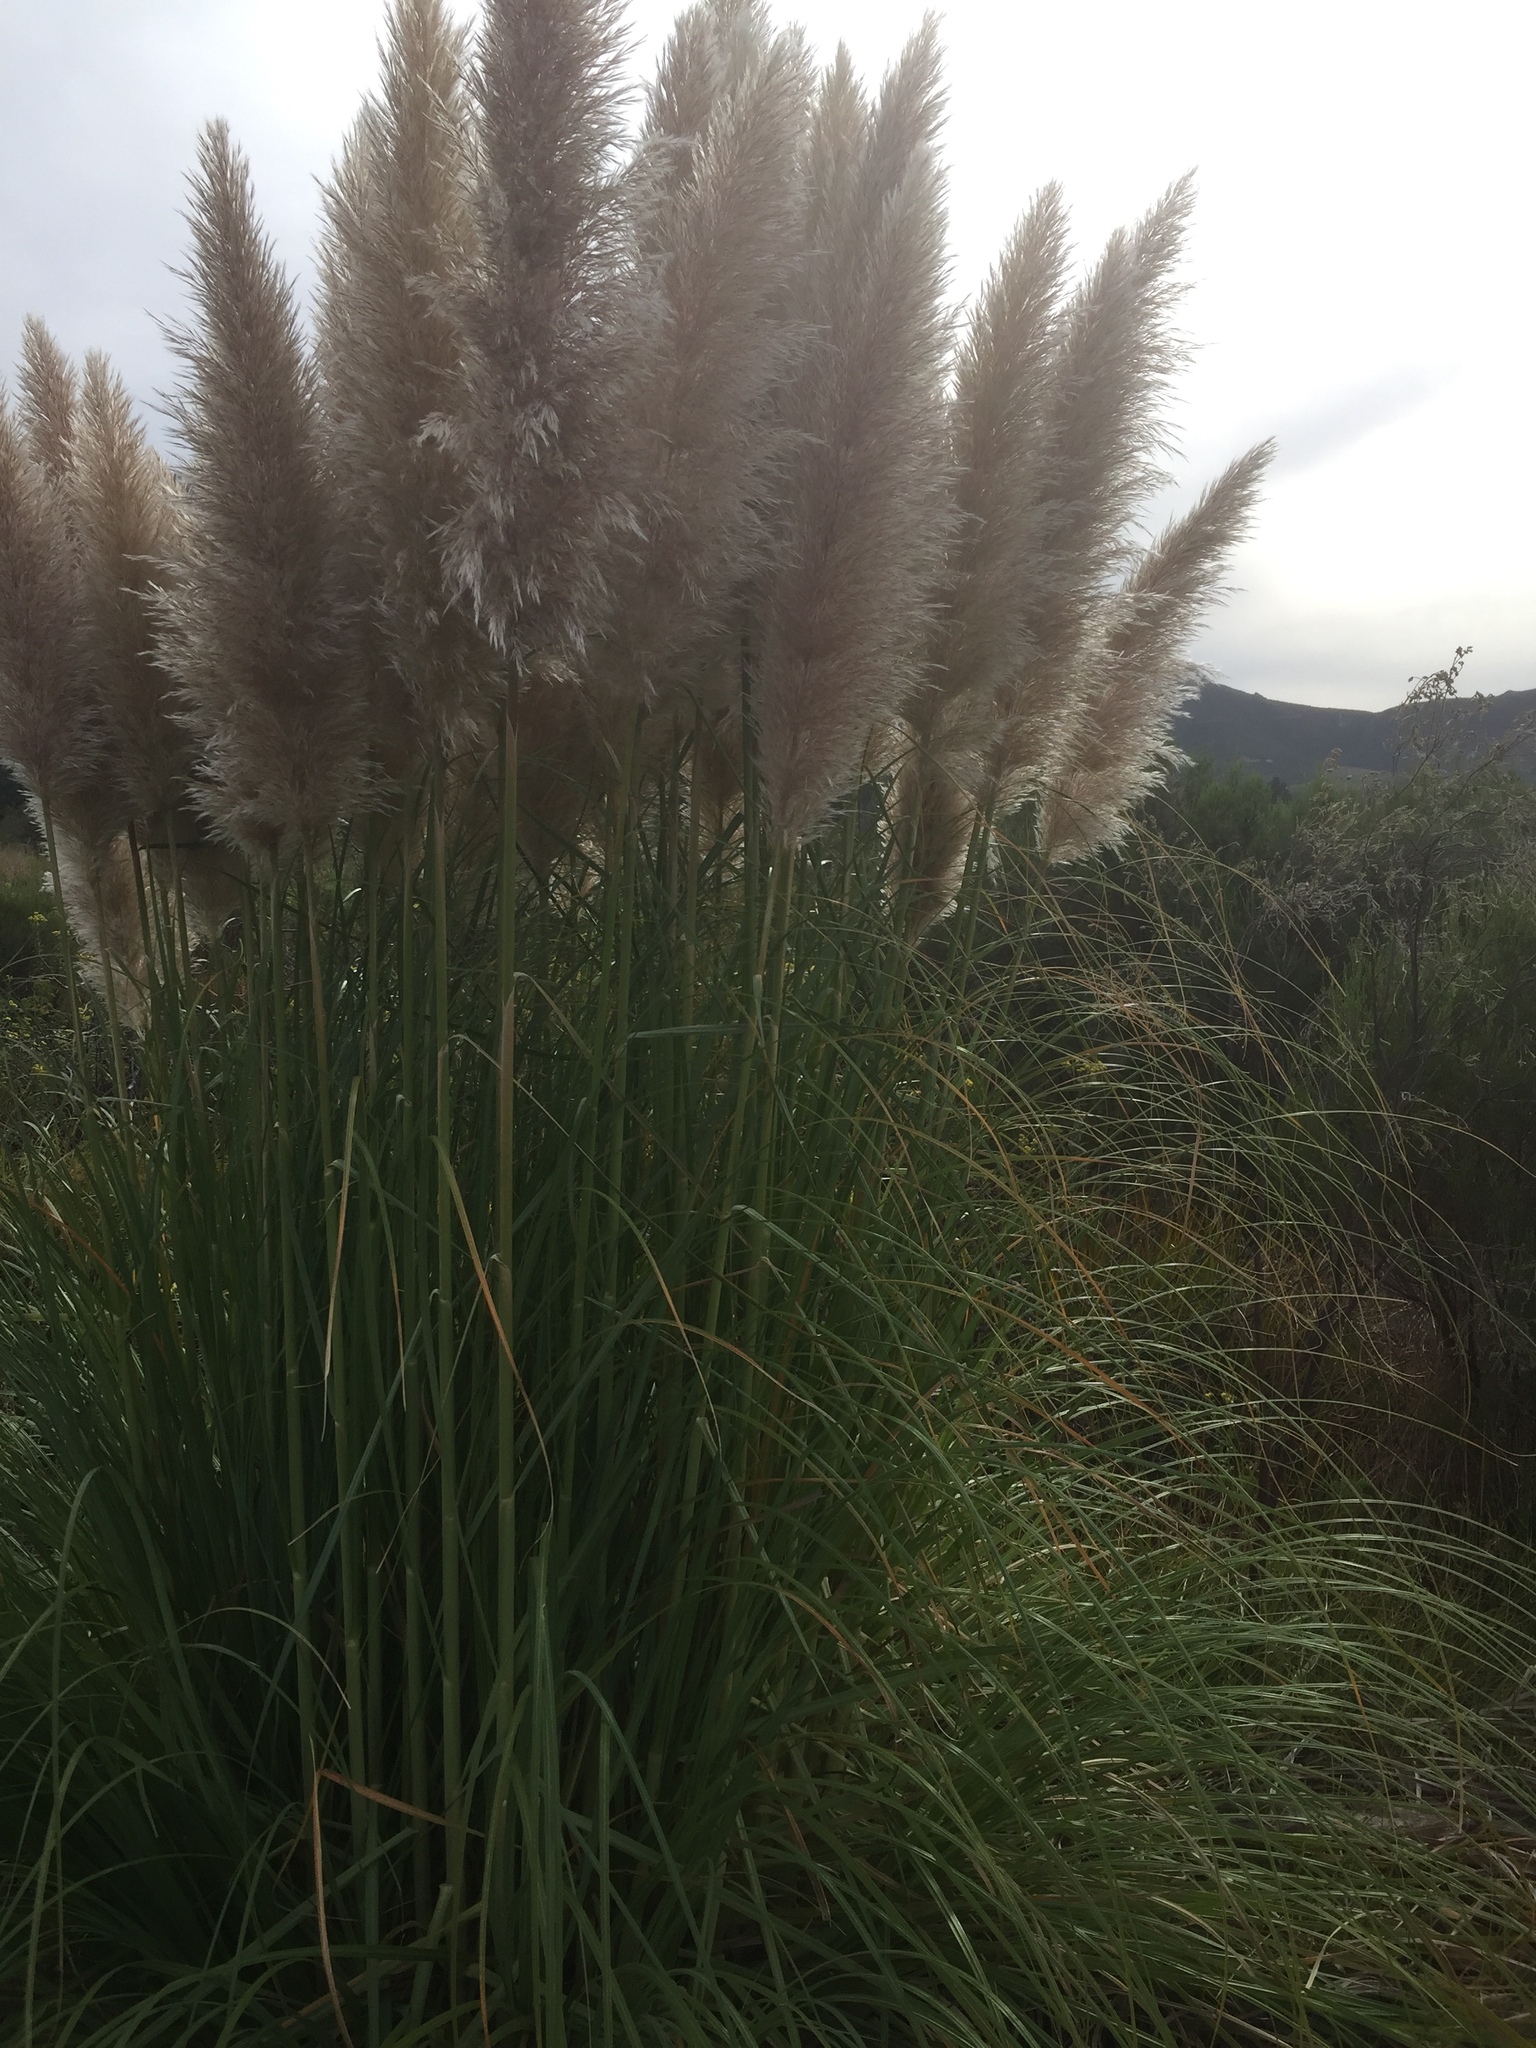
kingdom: Plantae
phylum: Tracheophyta
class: Liliopsida
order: Poales
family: Poaceae
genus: Cortaderia
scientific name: Cortaderia selloana
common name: Uruguayan pampas grass
